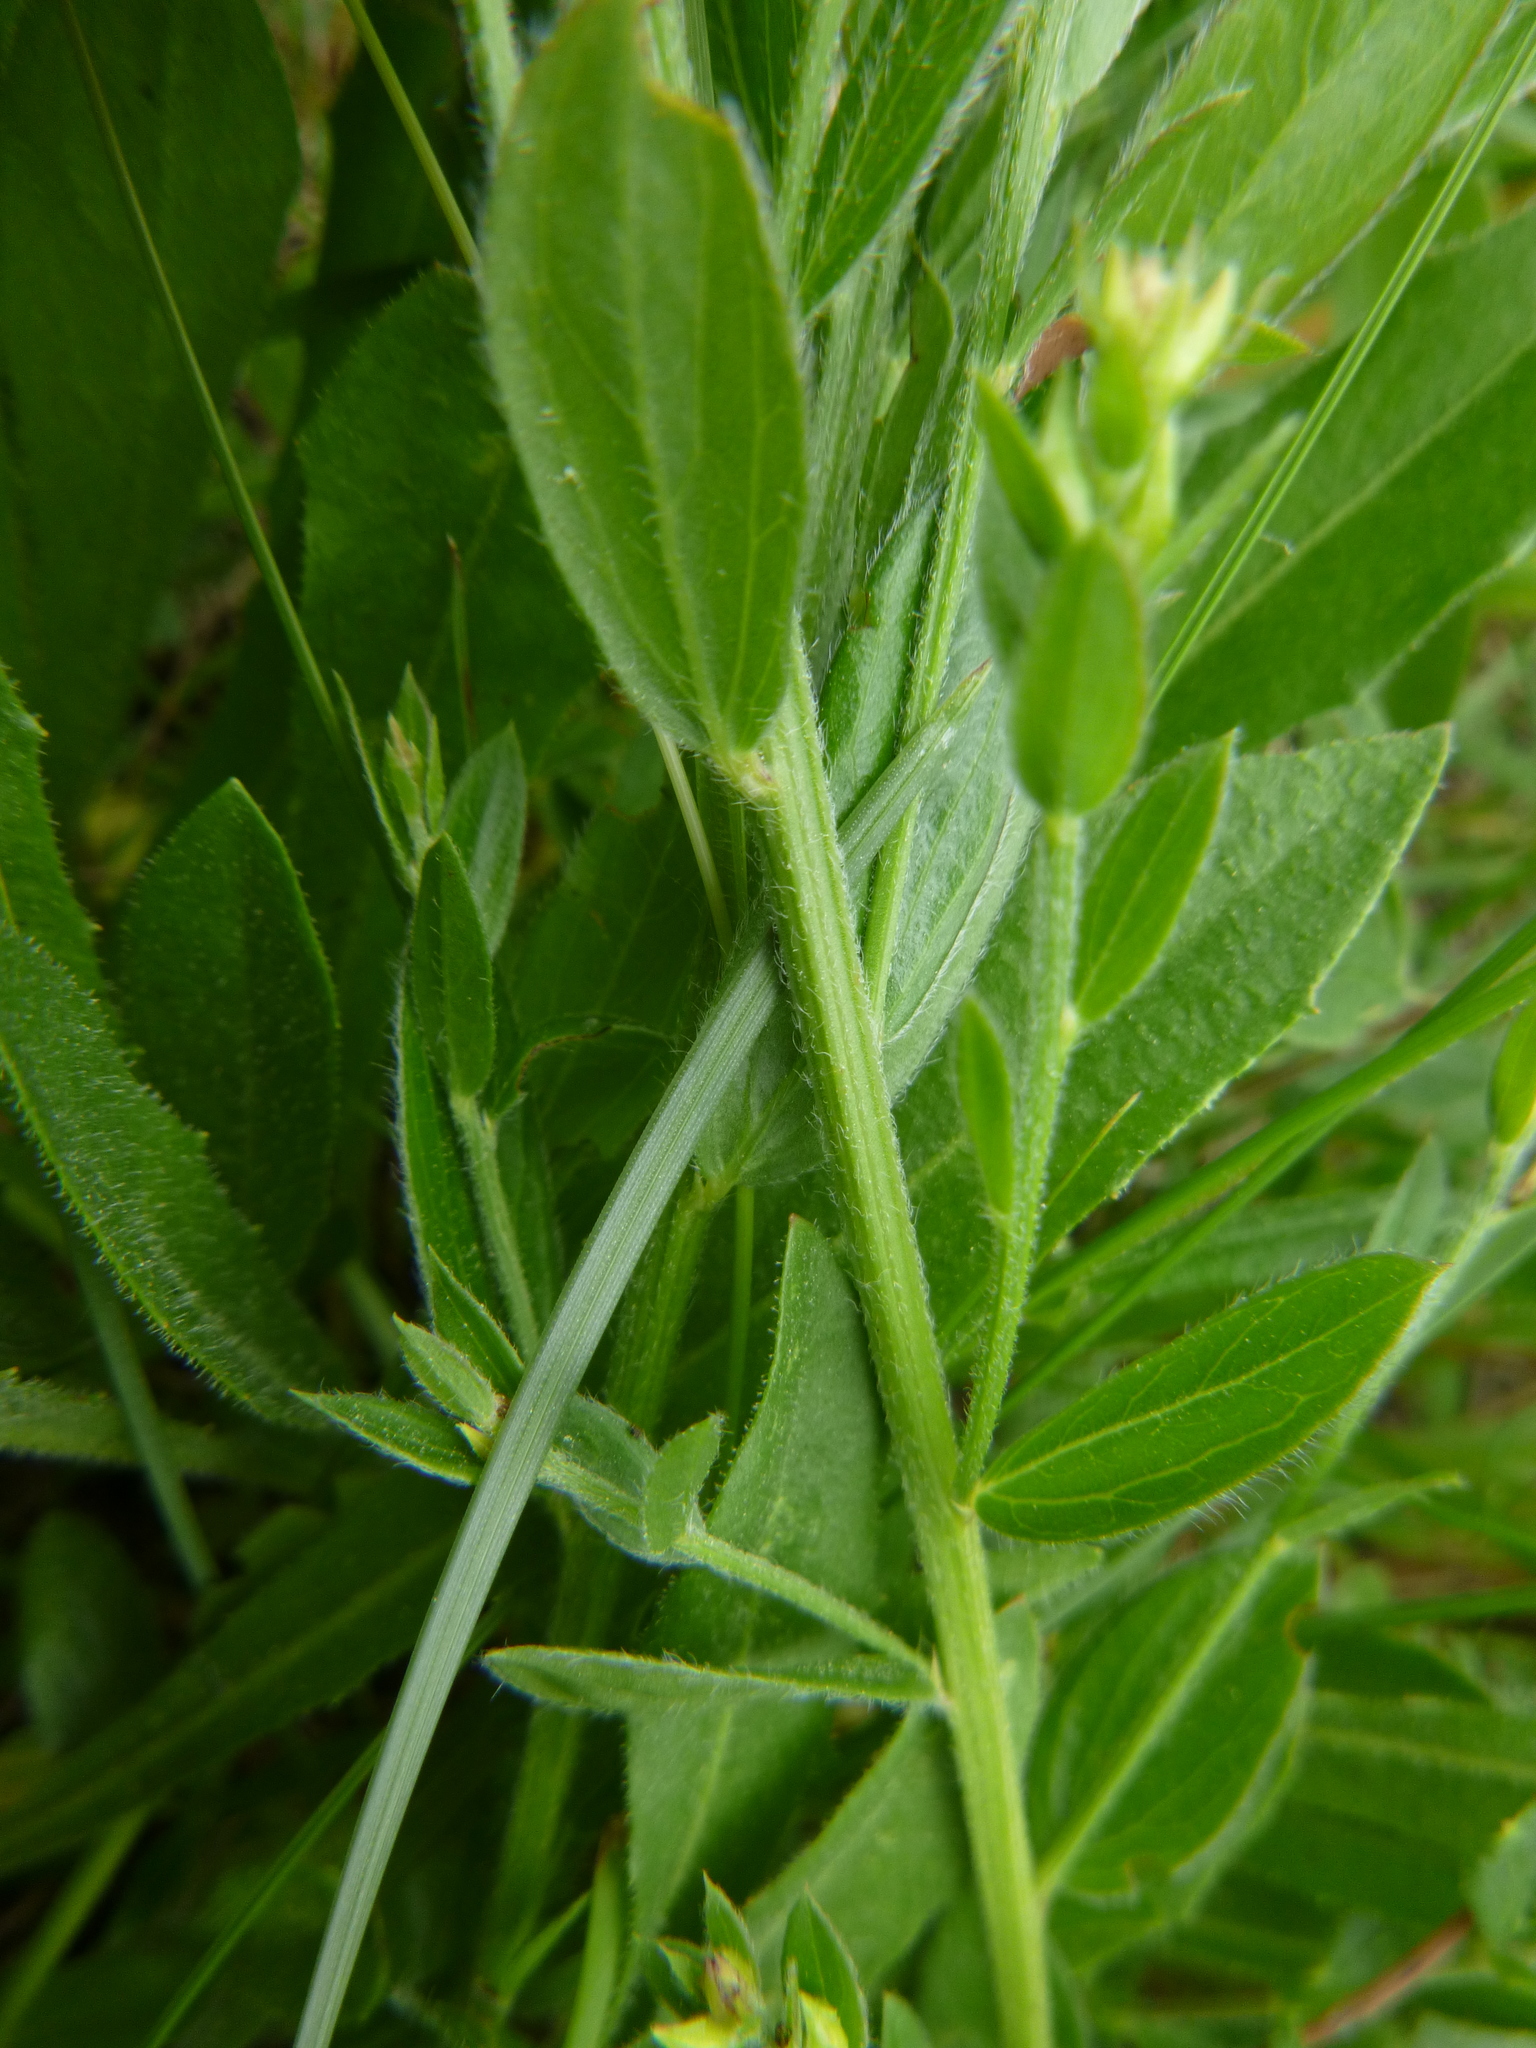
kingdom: Plantae
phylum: Tracheophyta
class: Magnoliopsida
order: Fabales
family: Fabaceae
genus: Genista
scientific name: Genista tinctoria
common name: Dyer's greenweed
